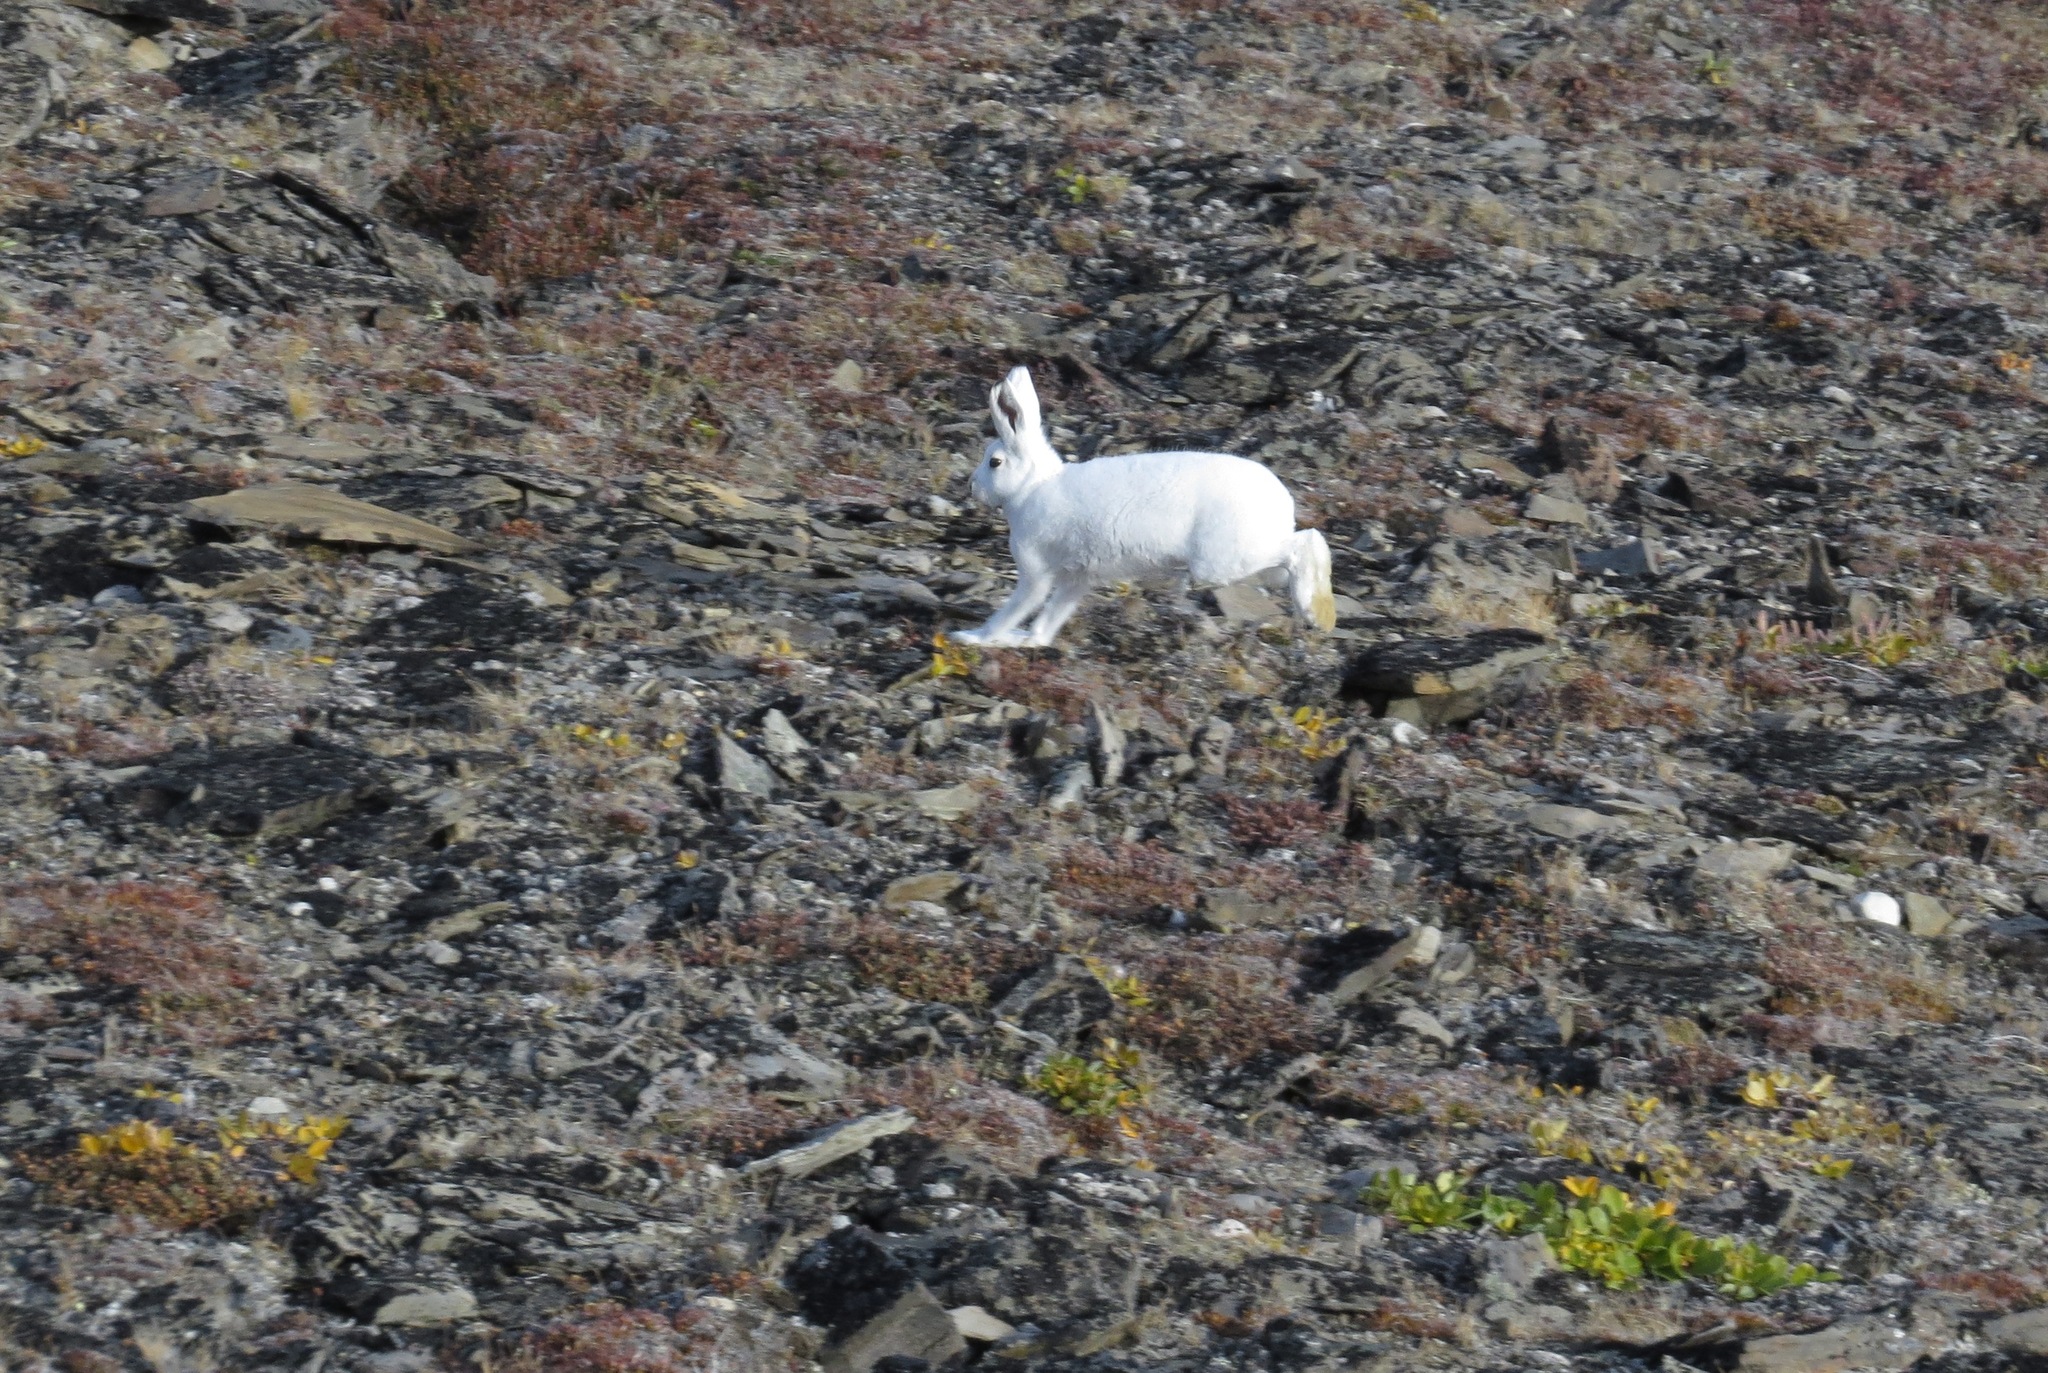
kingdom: Animalia
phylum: Chordata
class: Mammalia
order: Lagomorpha
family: Leporidae
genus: Lepus
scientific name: Lepus arcticus
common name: Arctic hare
